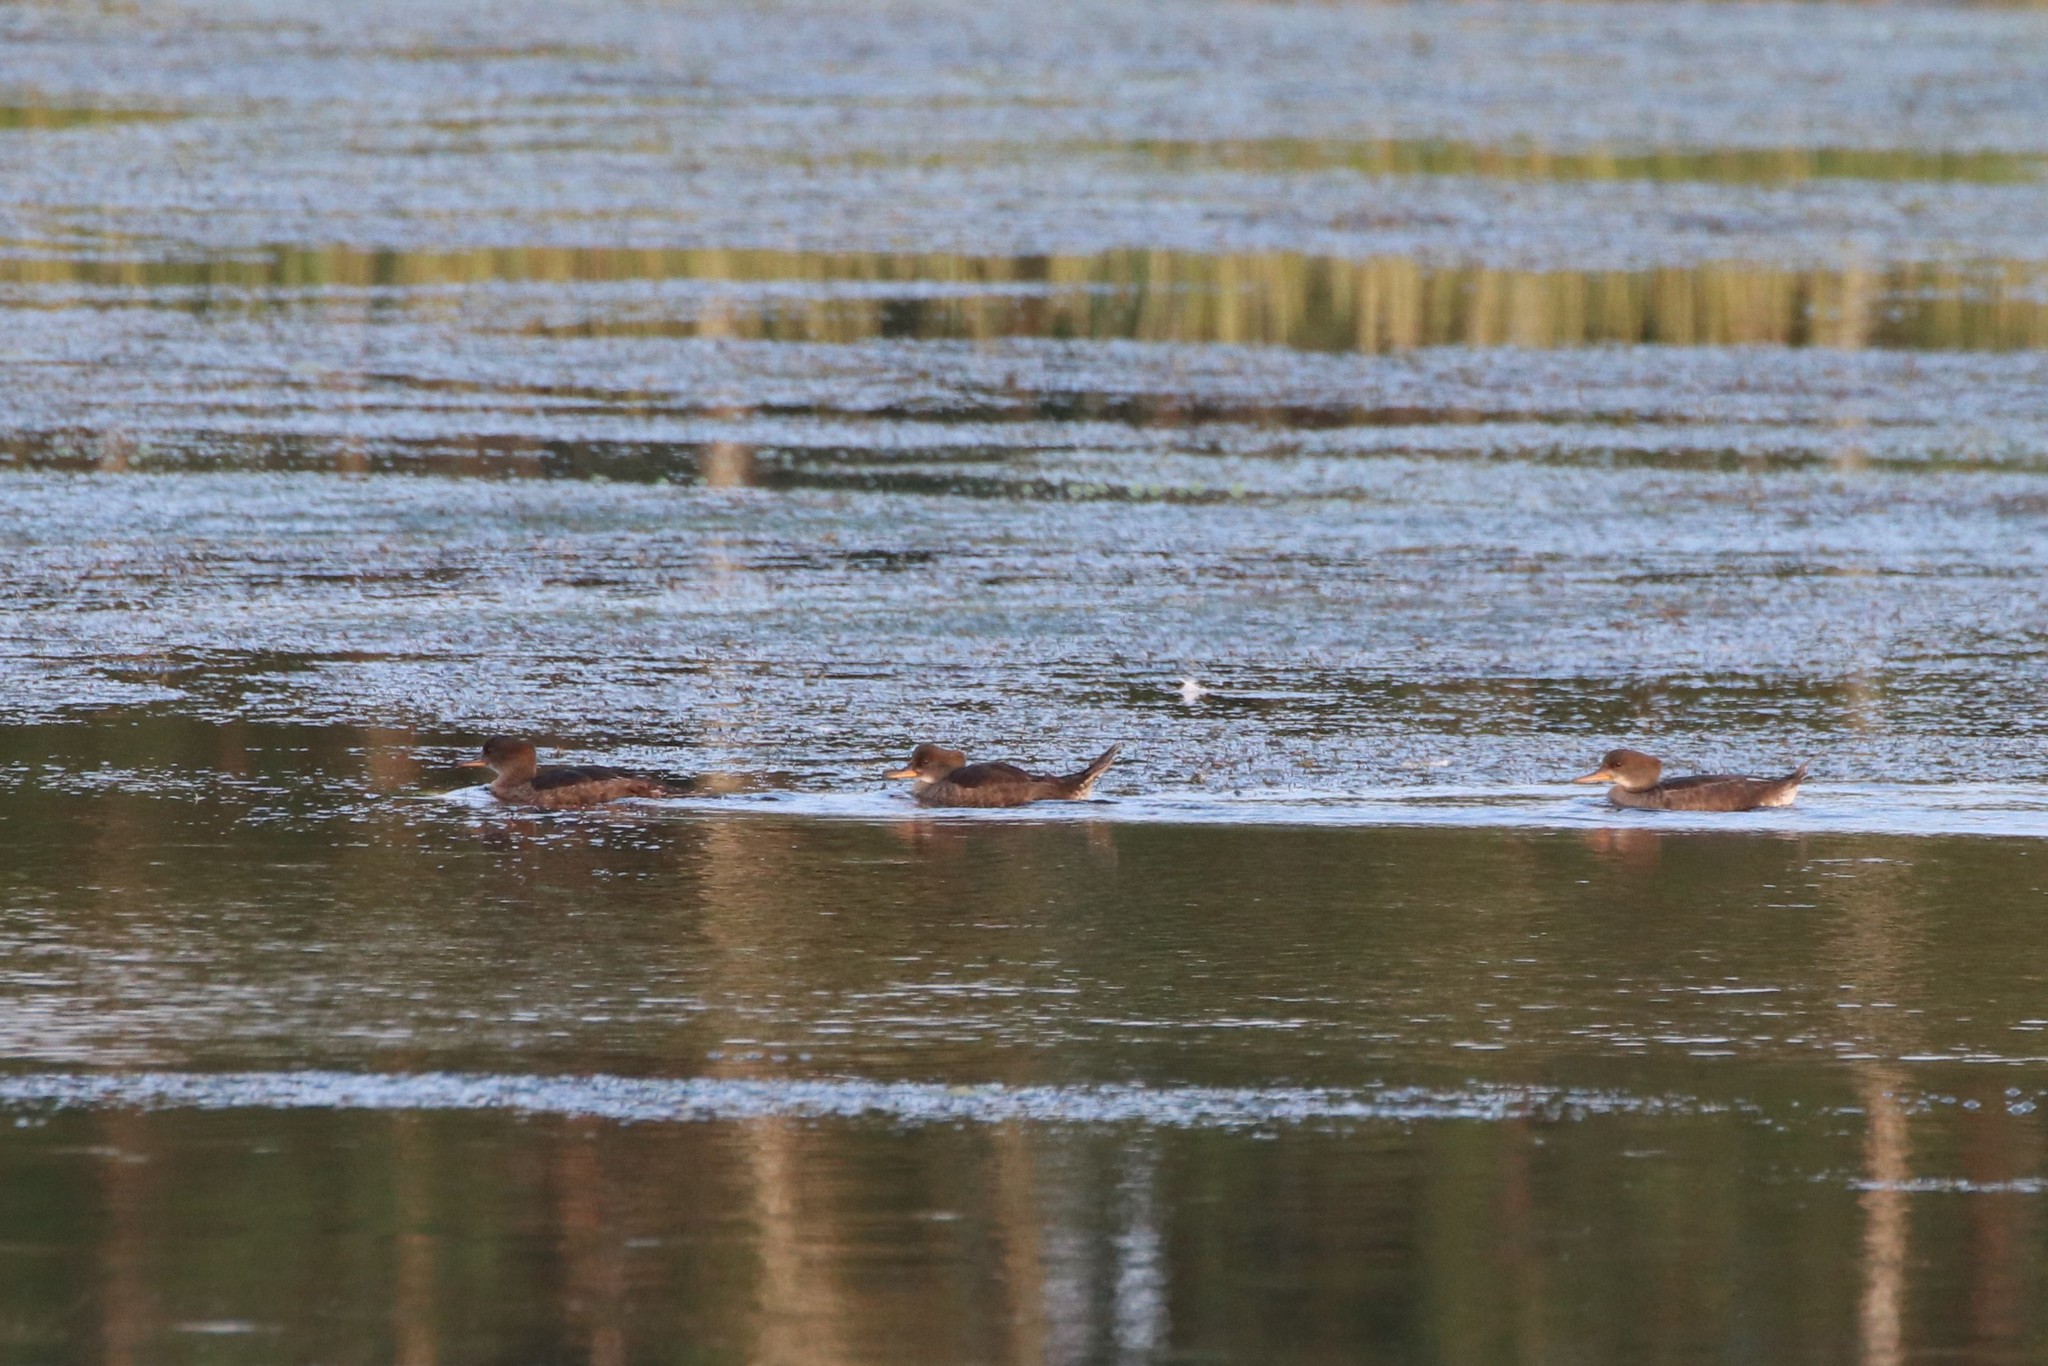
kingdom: Animalia
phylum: Chordata
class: Aves
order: Anseriformes
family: Anatidae
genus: Lophodytes
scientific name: Lophodytes cucullatus
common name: Hooded merganser
